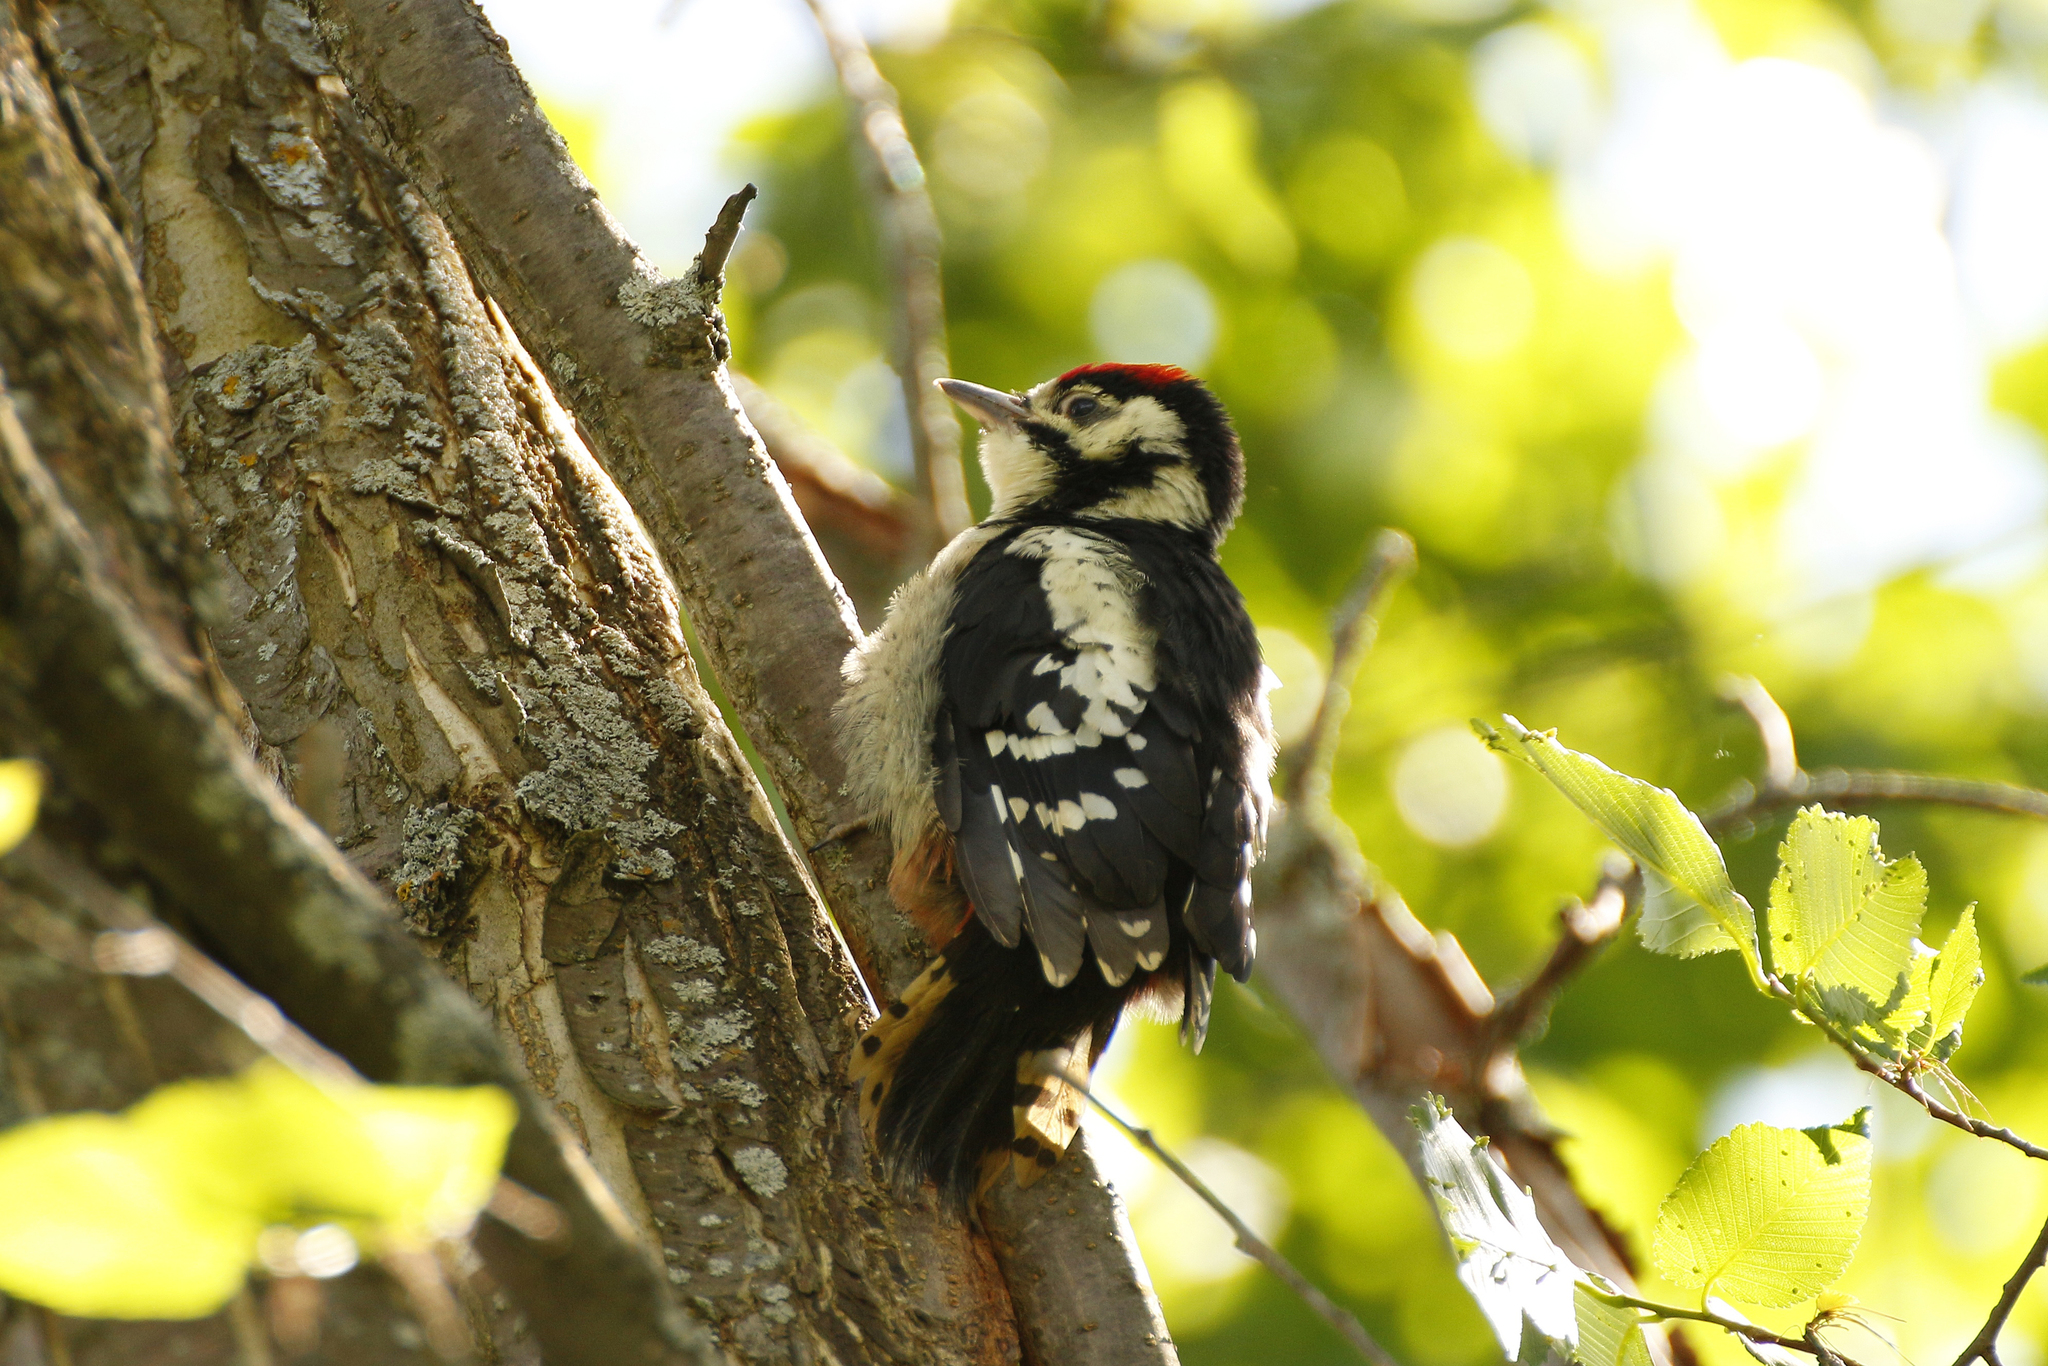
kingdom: Animalia
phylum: Chordata
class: Aves
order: Piciformes
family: Picidae
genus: Dendrocopos
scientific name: Dendrocopos major
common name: Great spotted woodpecker
